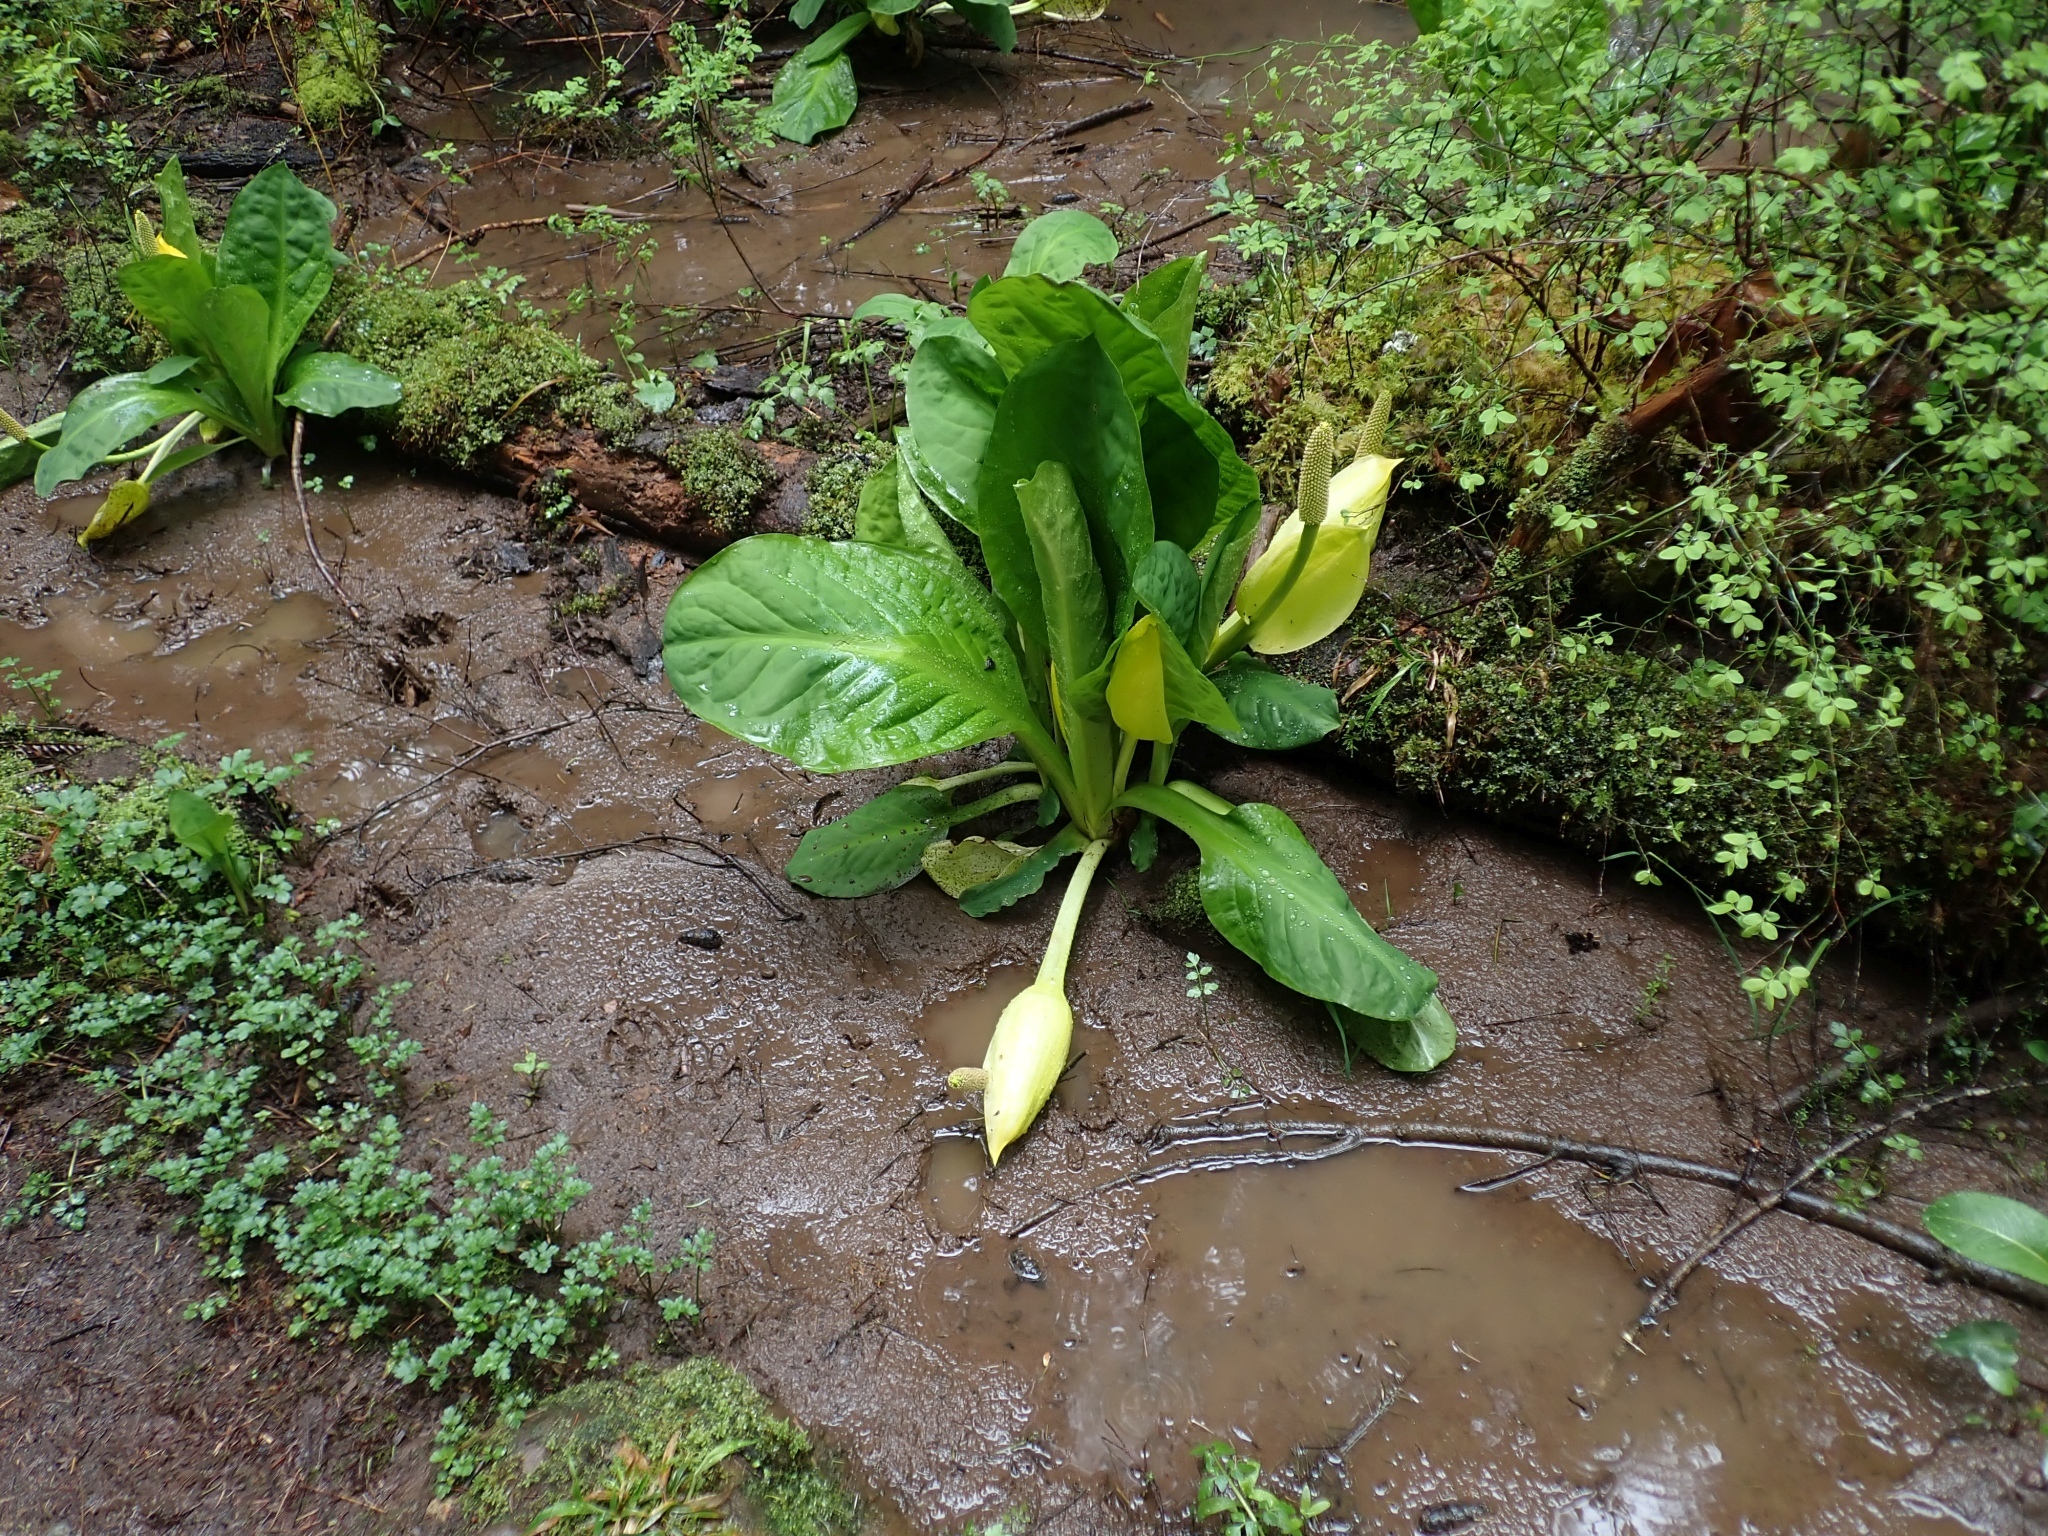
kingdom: Plantae
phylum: Tracheophyta
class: Liliopsida
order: Alismatales
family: Araceae
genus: Lysichiton
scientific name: Lysichiton americanus
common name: American skunk cabbage
